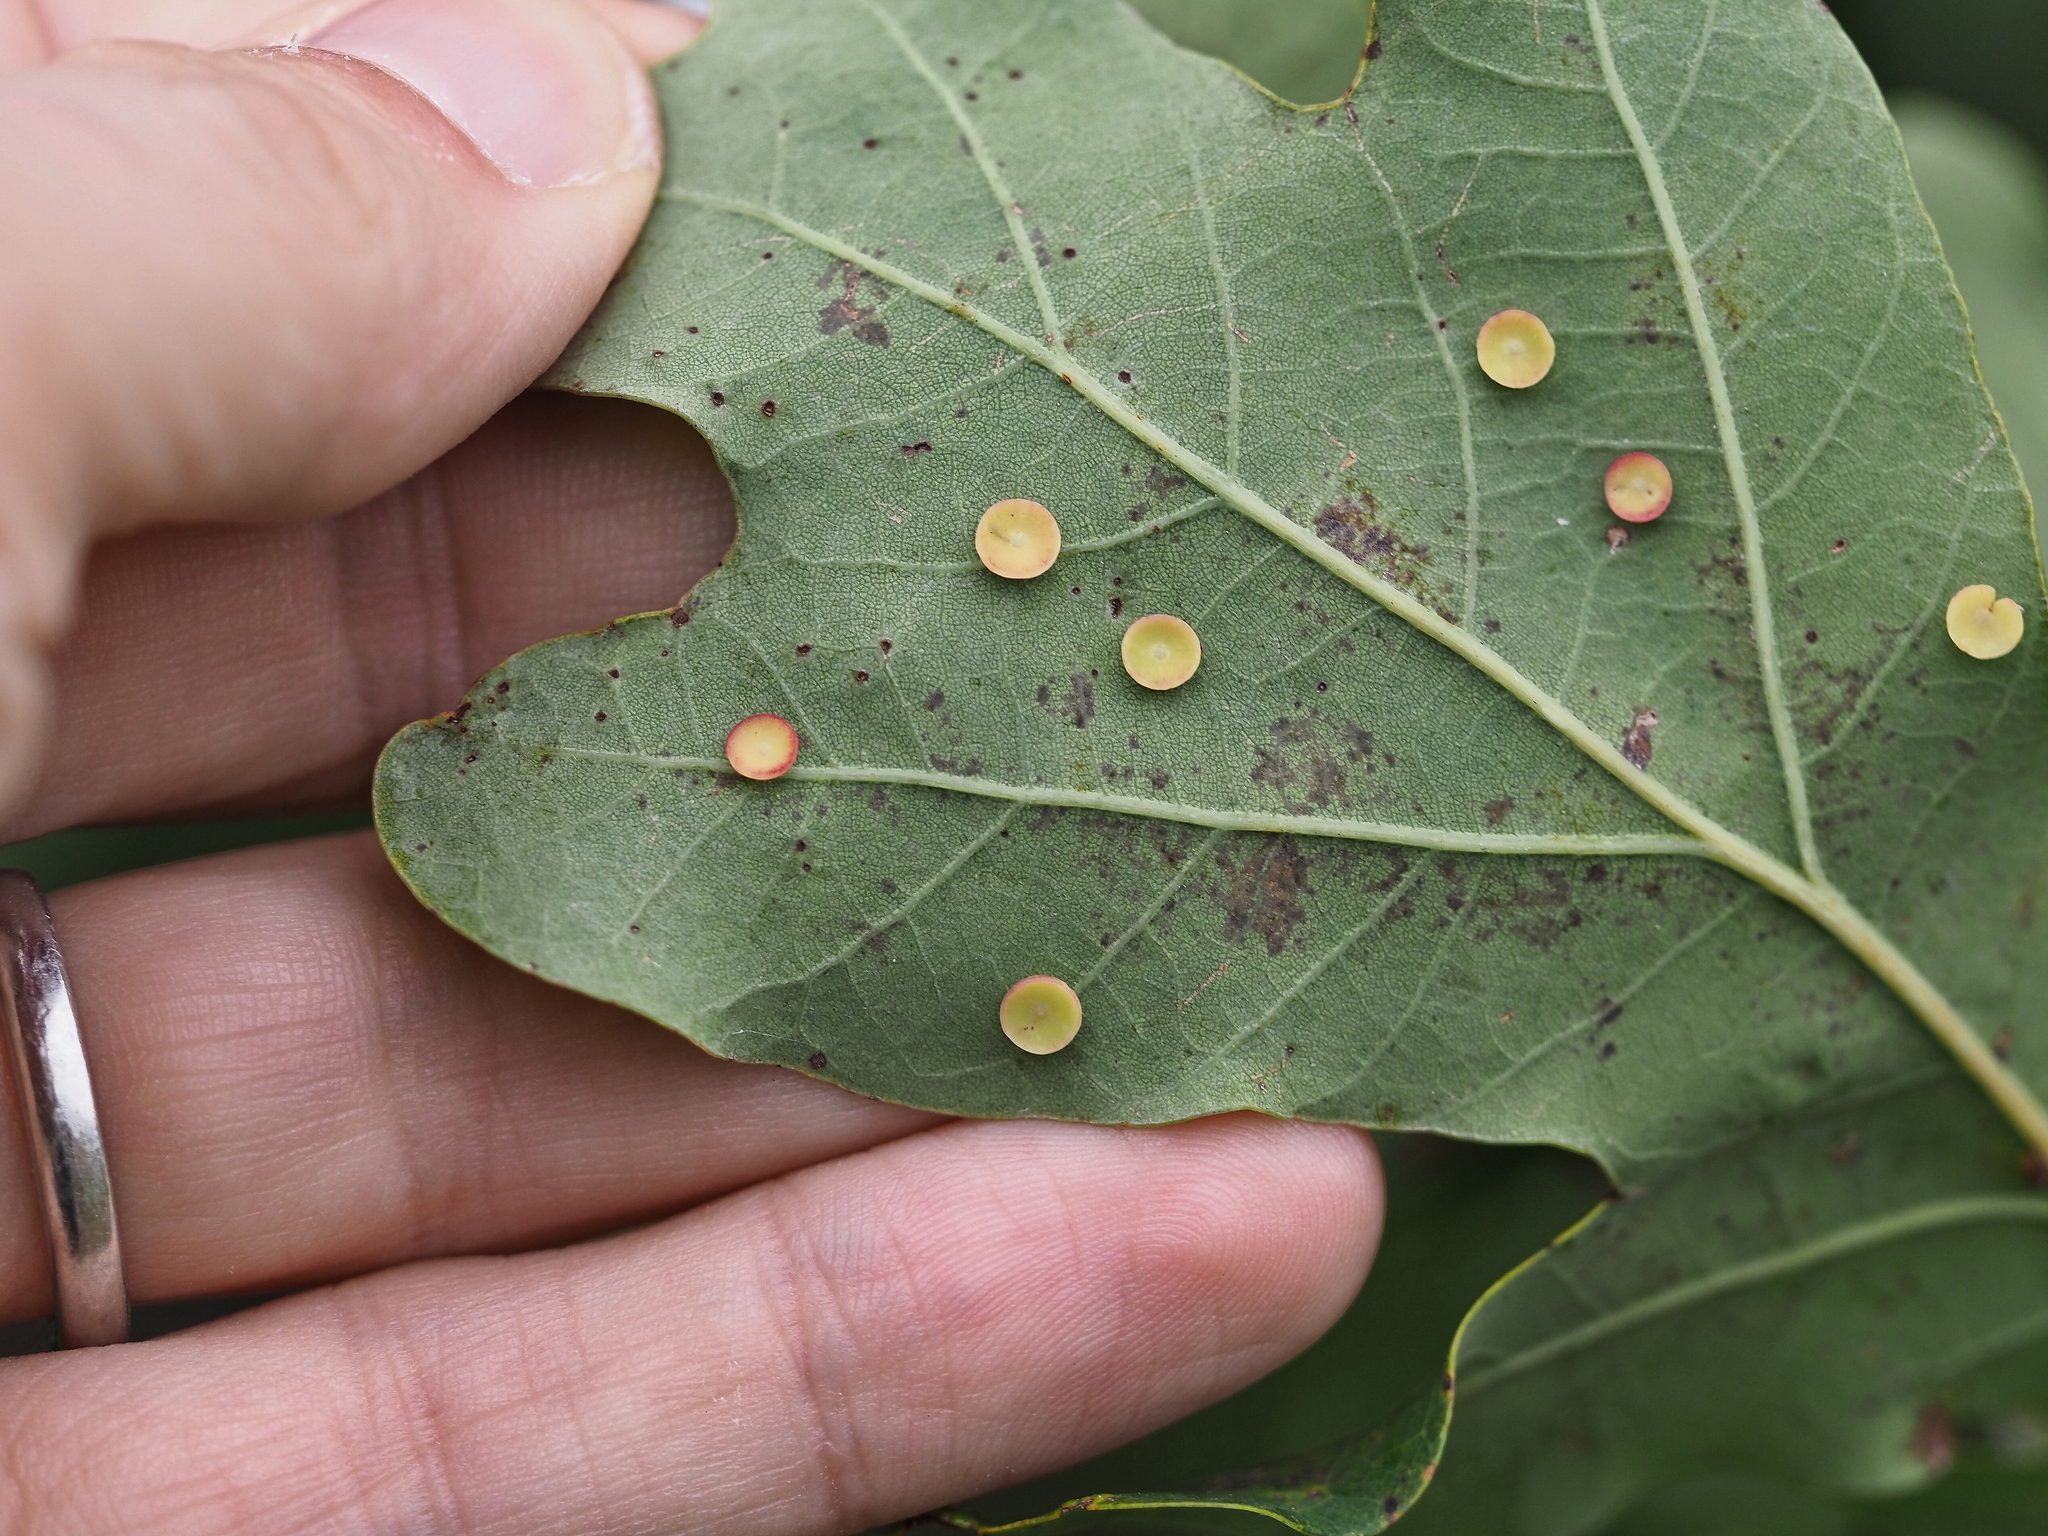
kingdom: Animalia
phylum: Arthropoda
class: Insecta
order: Hymenoptera
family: Cynipidae
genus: Neuroterus
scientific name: Neuroterus albipes
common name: Smooth spangle gall
